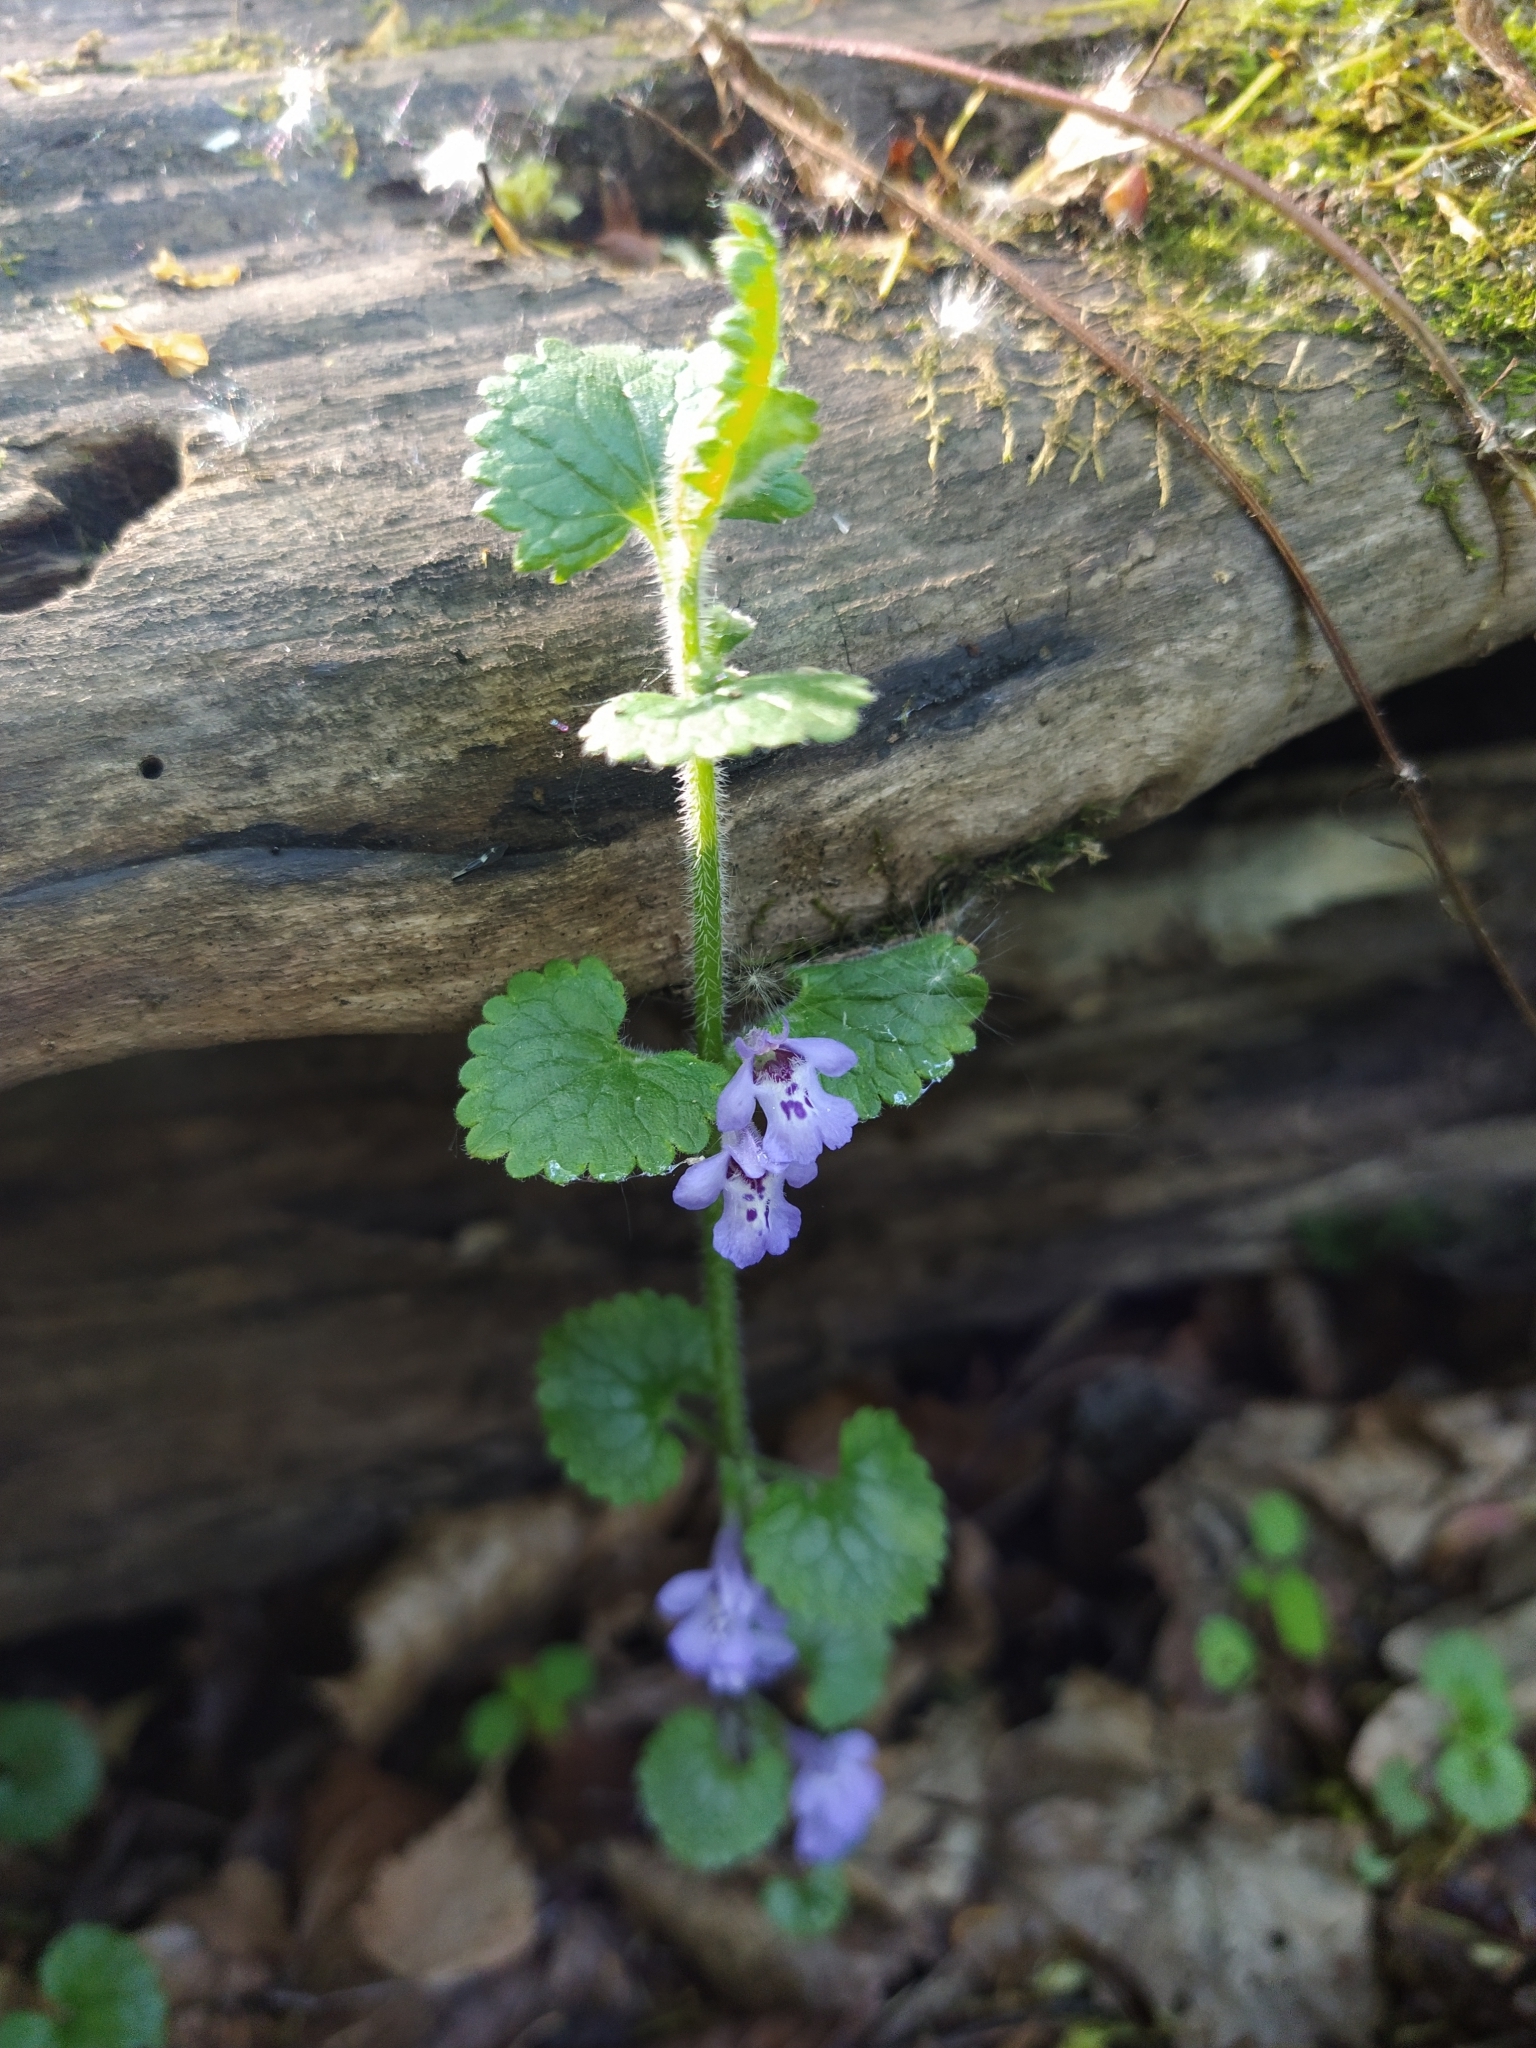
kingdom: Plantae
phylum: Tracheophyta
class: Magnoliopsida
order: Lamiales
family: Lamiaceae
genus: Glechoma
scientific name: Glechoma hederacea
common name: Ground ivy
